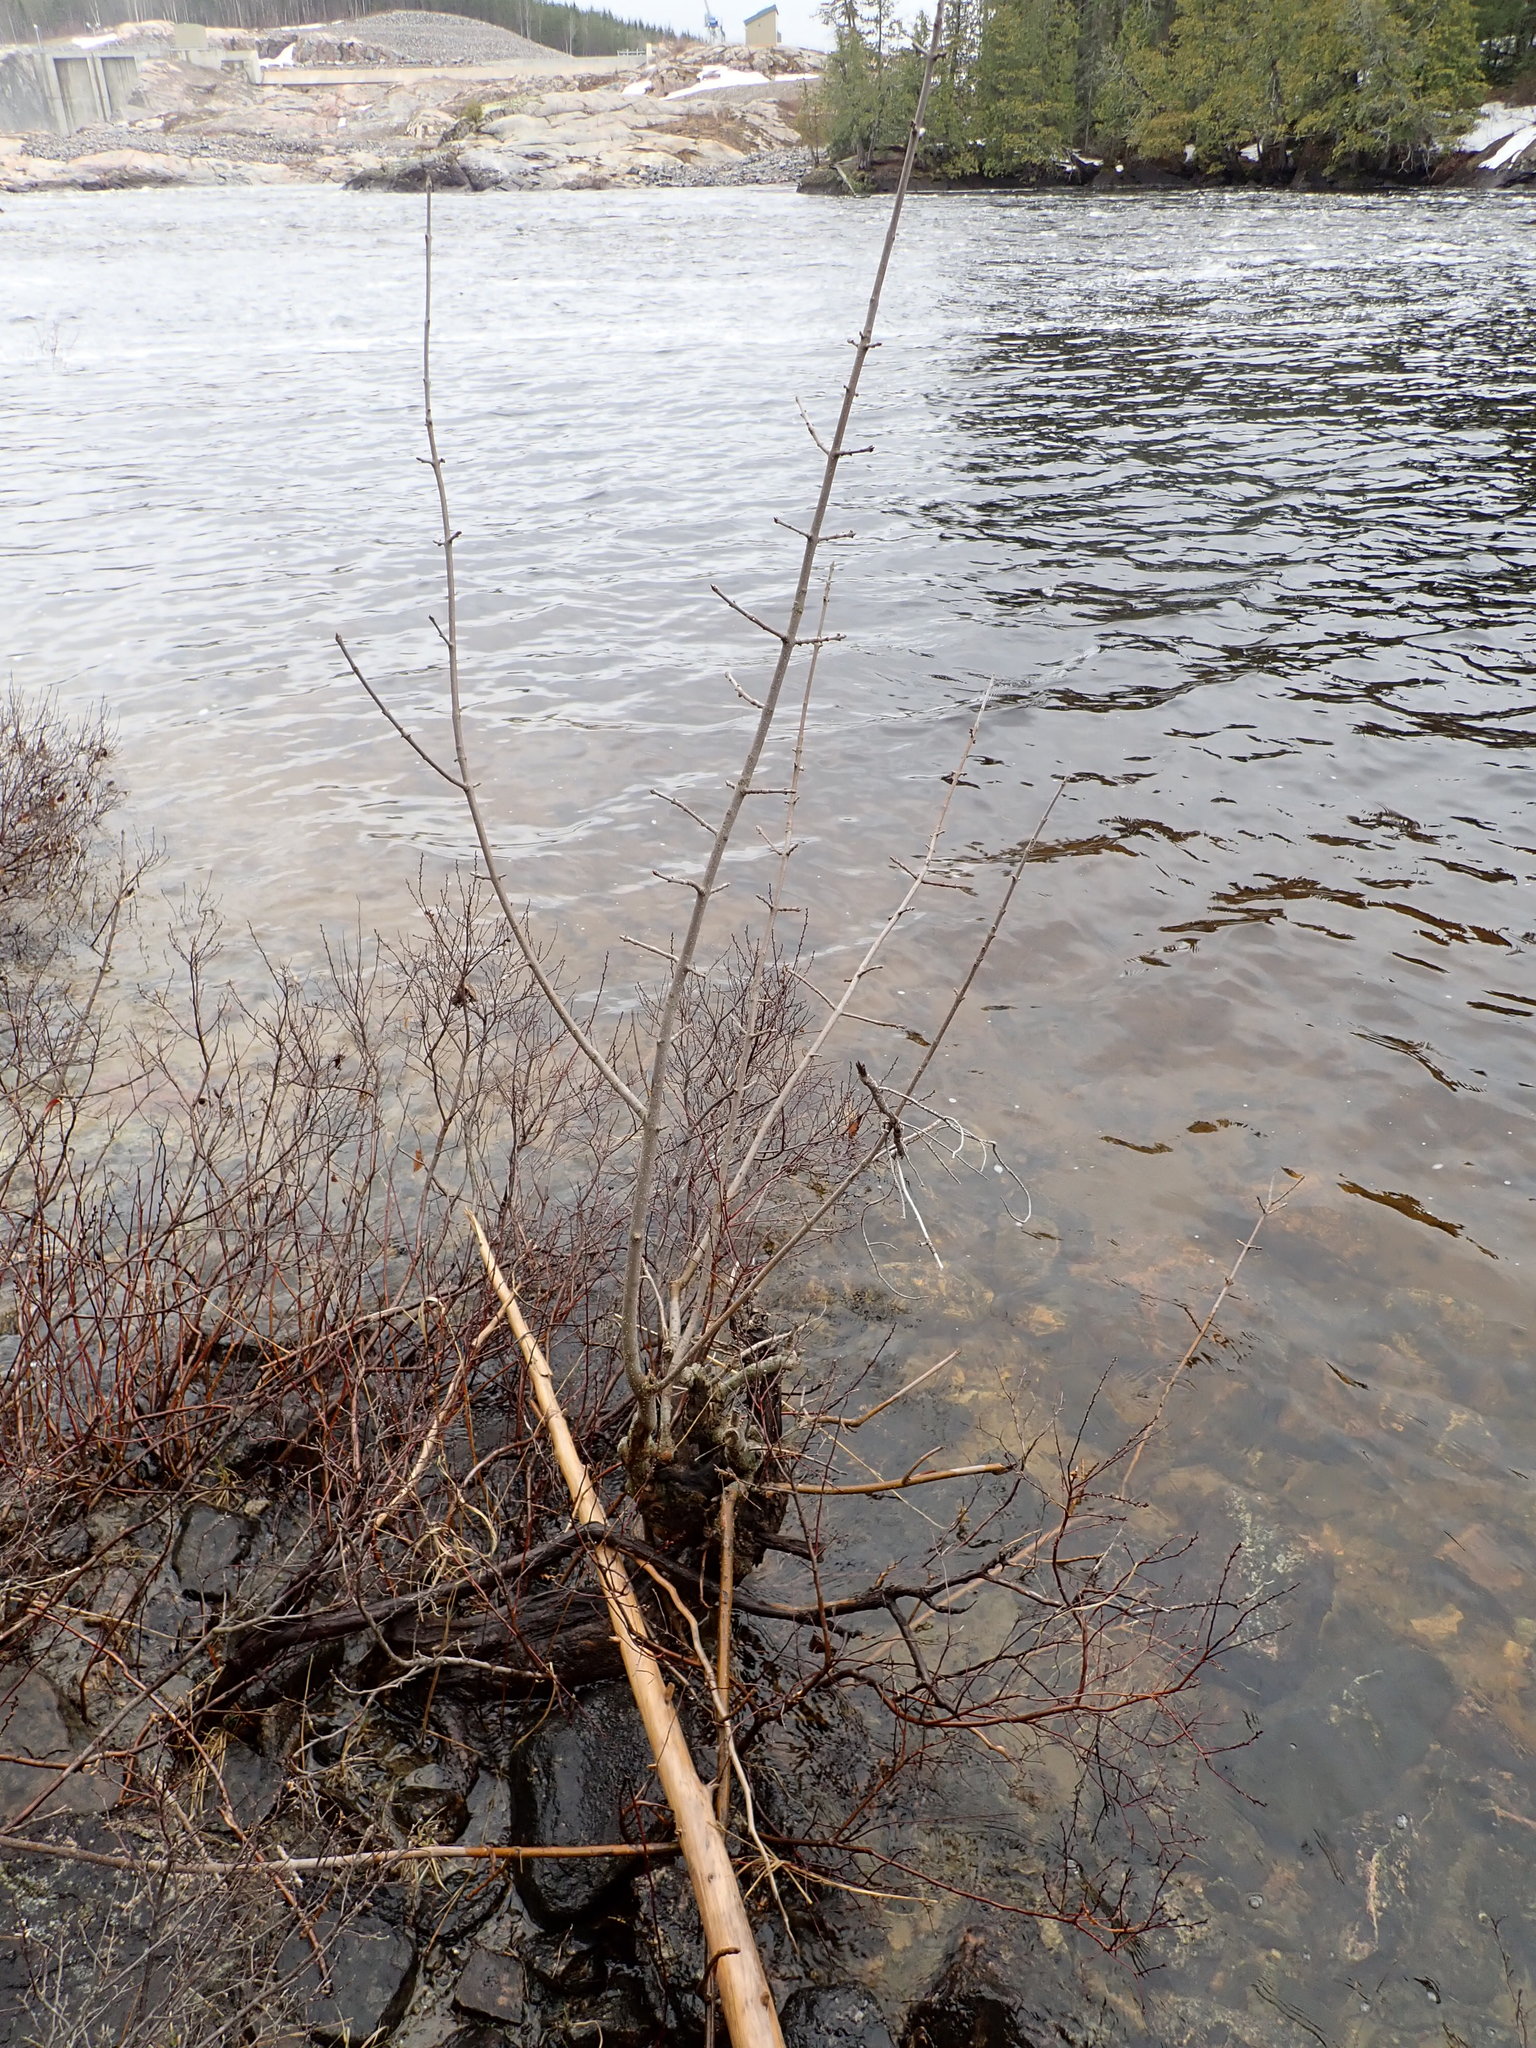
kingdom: Plantae
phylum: Tracheophyta
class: Magnoliopsida
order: Lamiales
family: Oleaceae
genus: Fraxinus
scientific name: Fraxinus nigra
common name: Black ash
